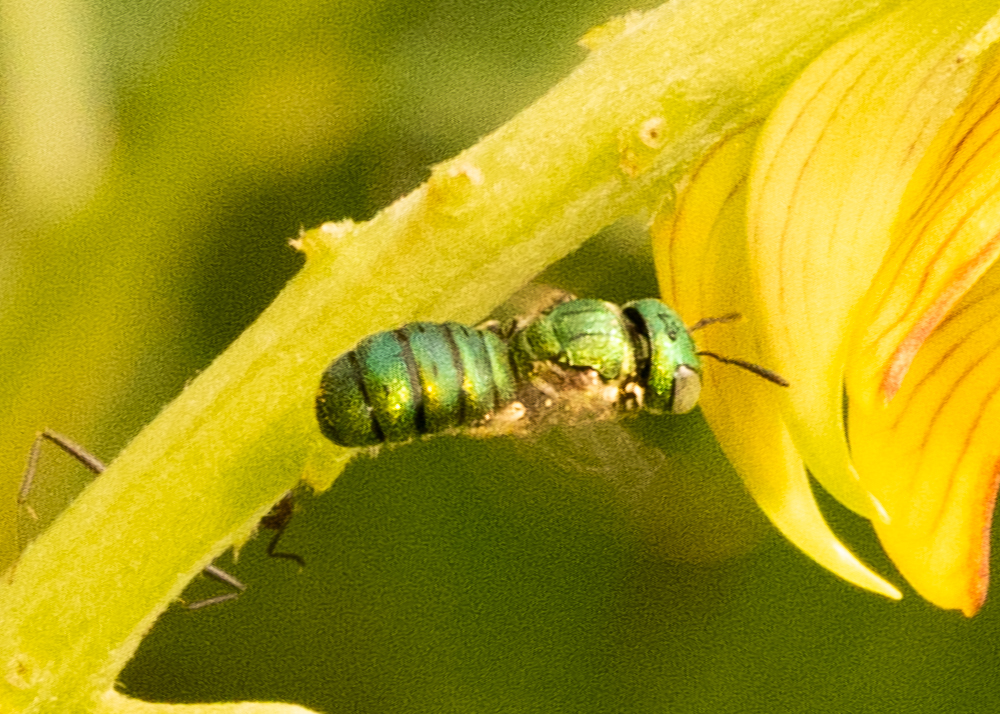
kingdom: Animalia
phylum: Arthropoda
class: Insecta
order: Hymenoptera
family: Apidae
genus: Ceratina
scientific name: Ceratina smaragdula
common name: Small carpenter bee
